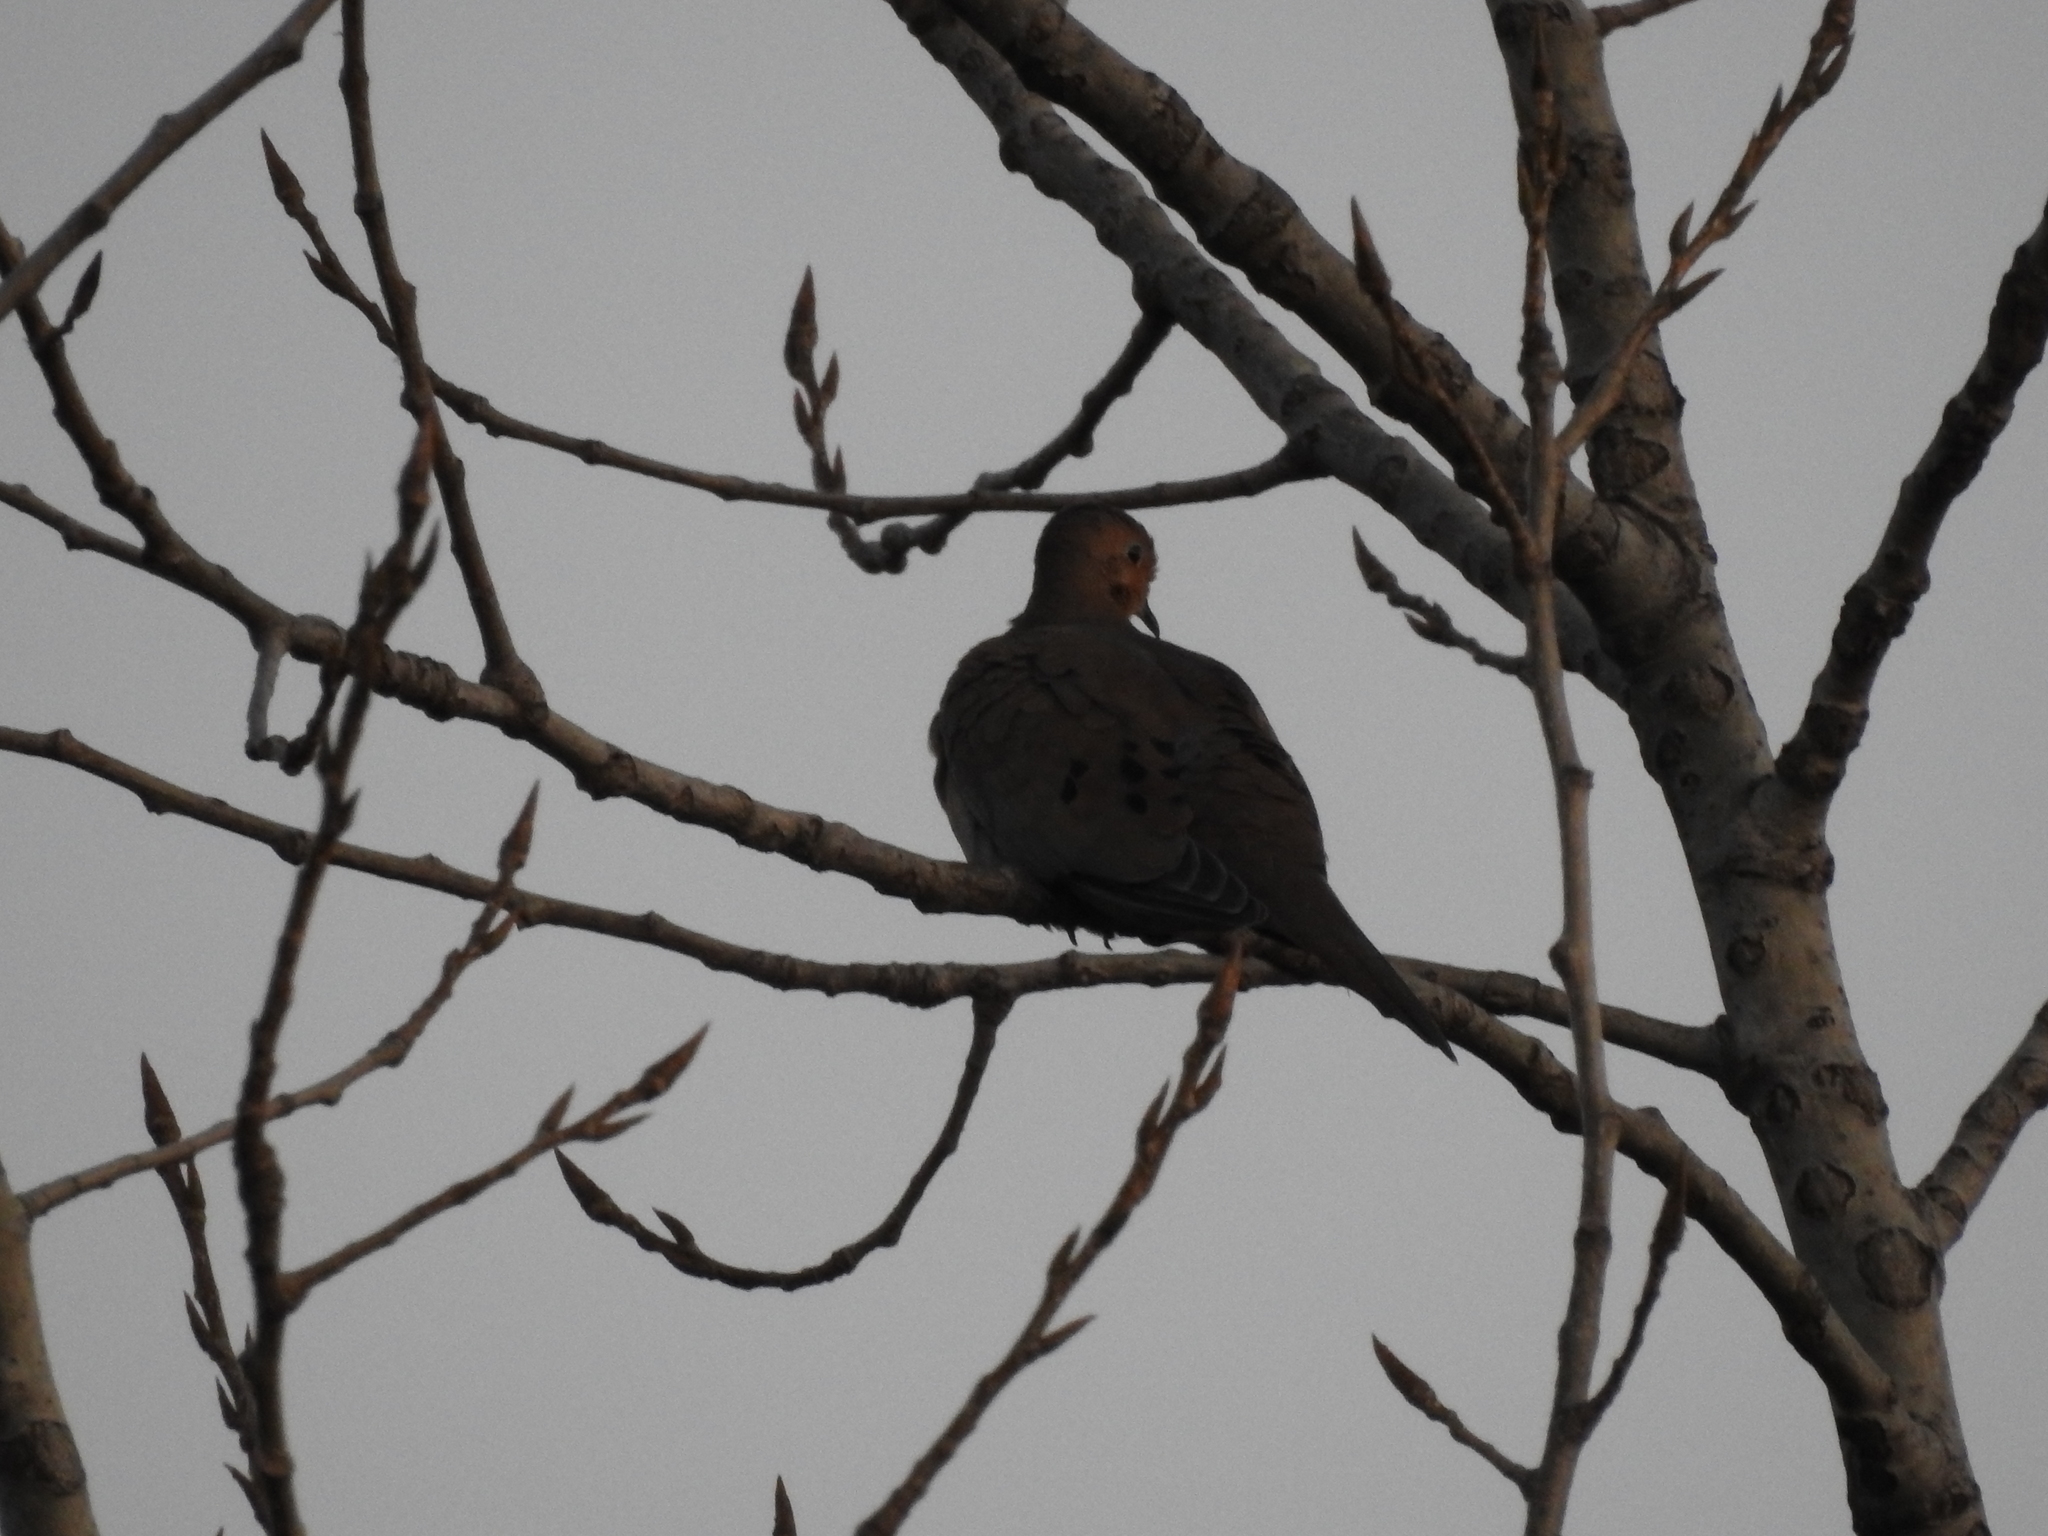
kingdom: Animalia
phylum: Chordata
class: Aves
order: Columbiformes
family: Columbidae
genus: Zenaida
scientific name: Zenaida macroura
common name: Mourning dove
